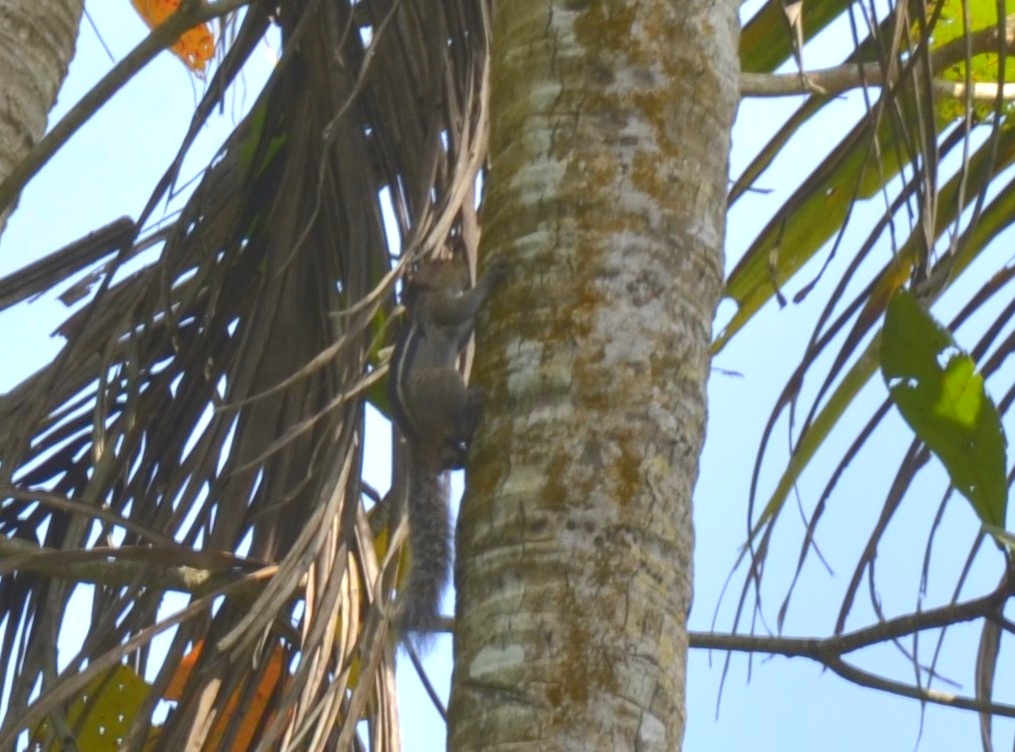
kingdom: Animalia
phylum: Chordata
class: Mammalia
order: Rodentia
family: Sciuridae
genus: Funambulus
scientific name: Funambulus tristriatus
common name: Jungle palm squirrel
